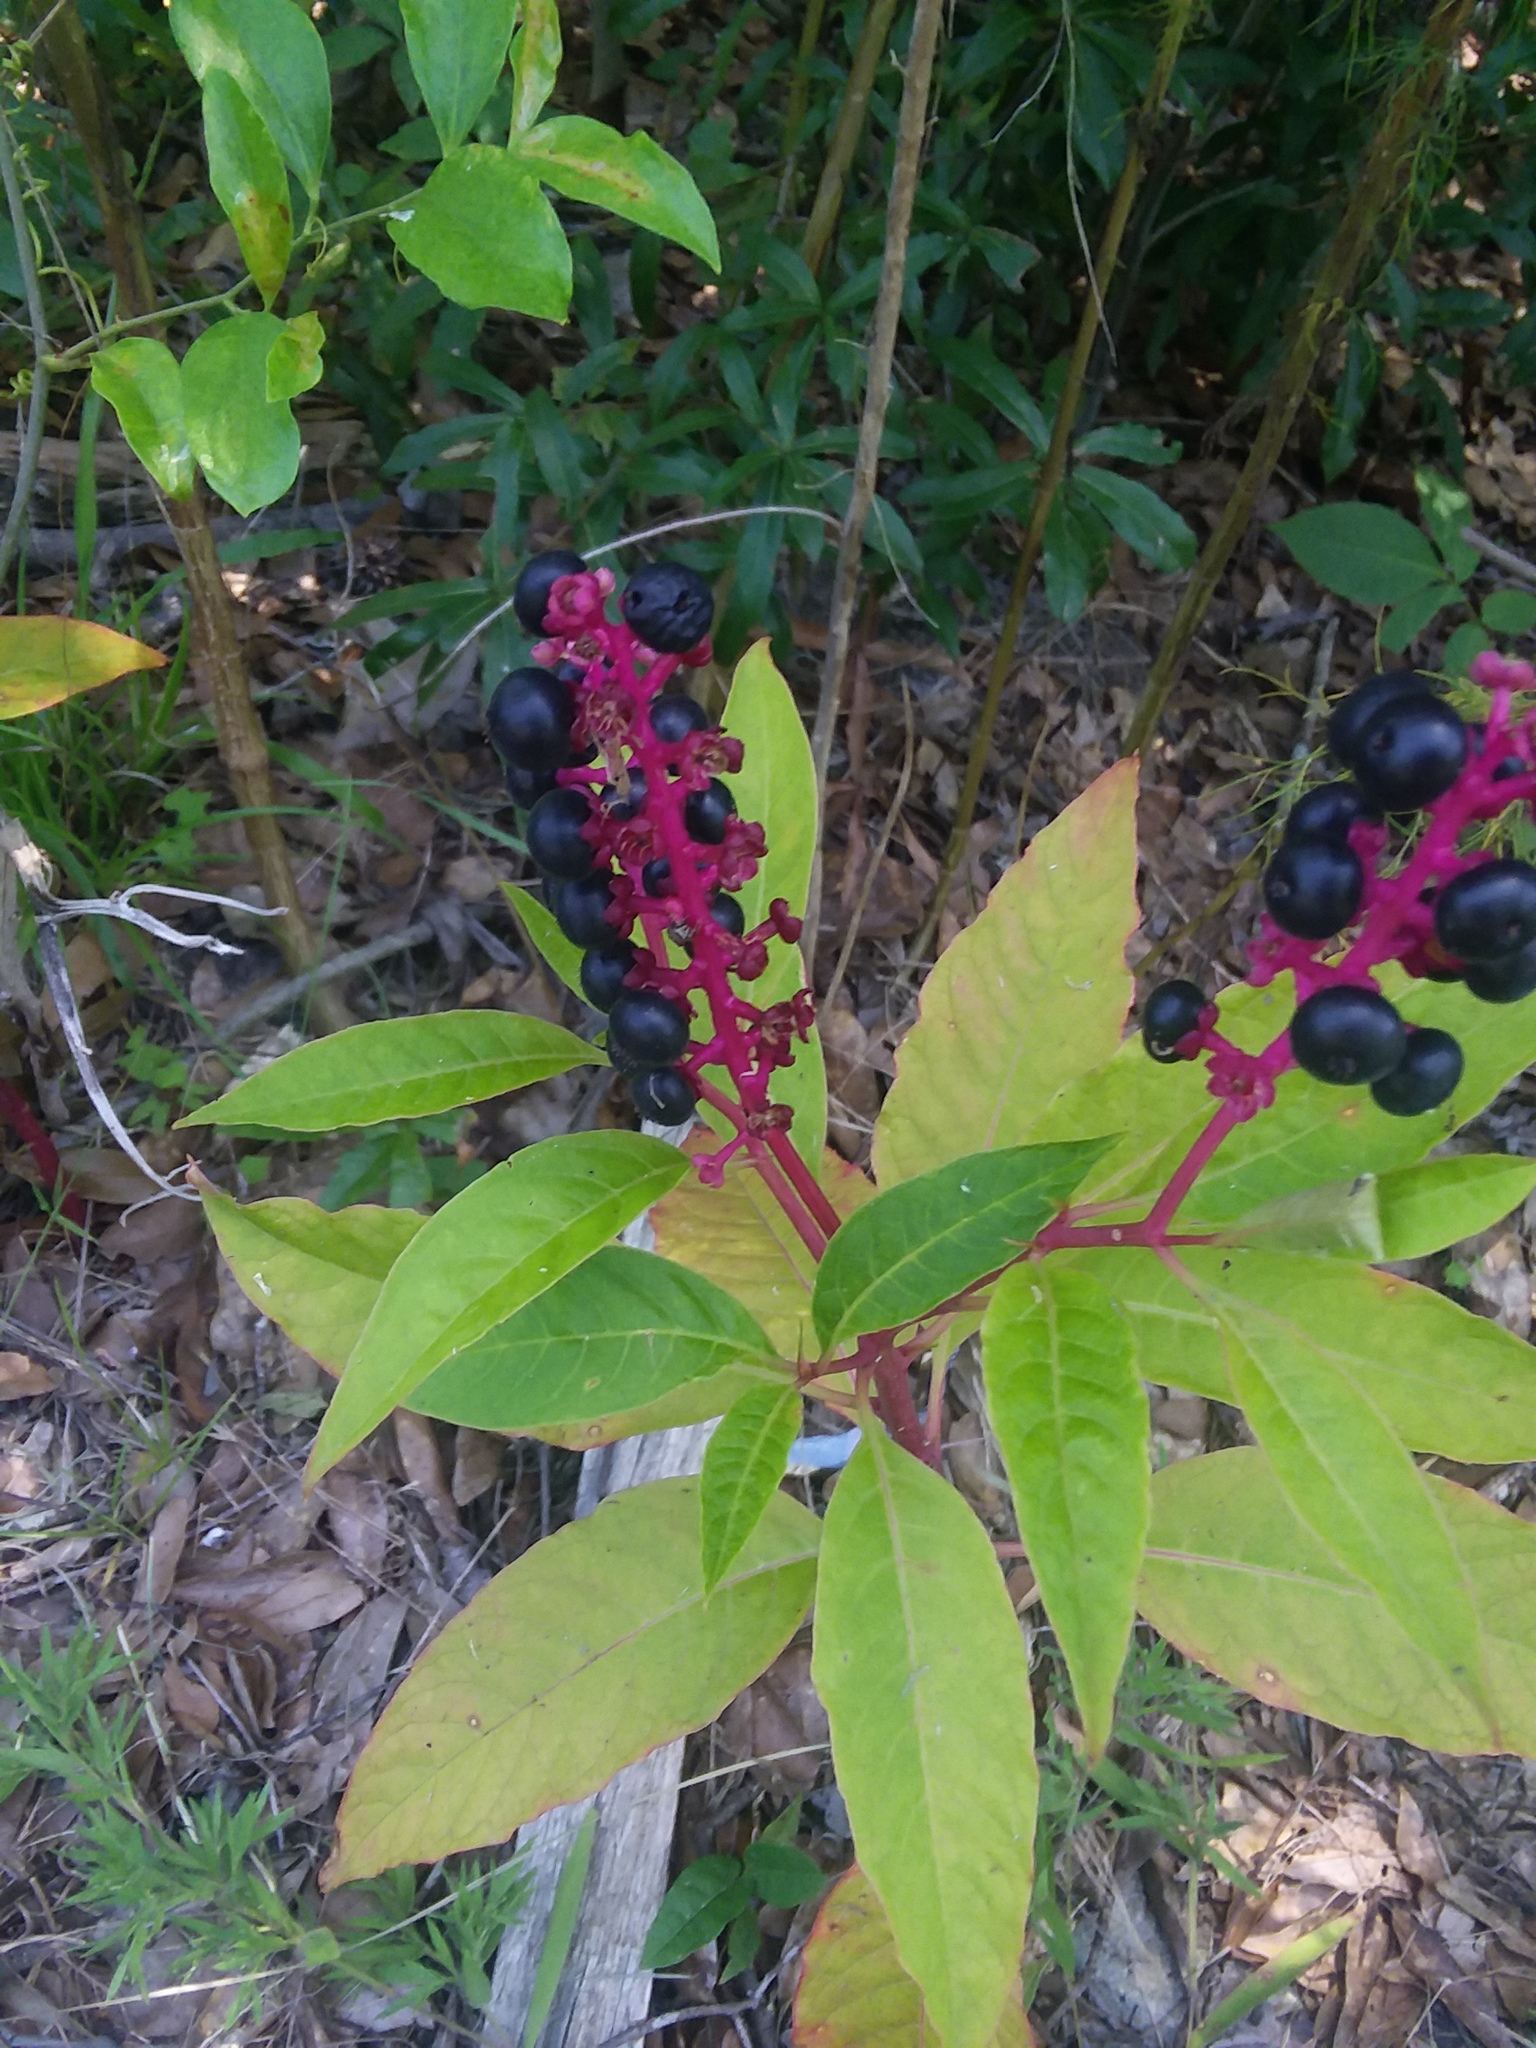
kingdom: Plantae
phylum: Tracheophyta
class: Magnoliopsida
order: Caryophyllales
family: Phytolaccaceae
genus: Phytolacca
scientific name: Phytolacca americana
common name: American pokeweed
